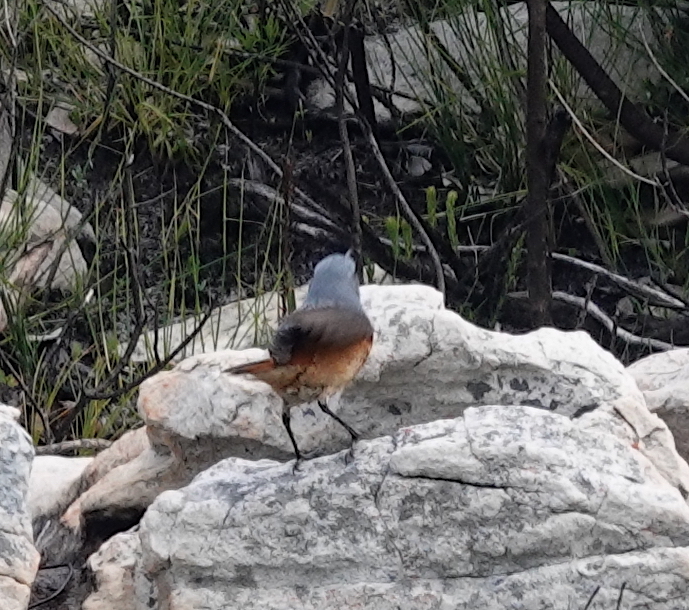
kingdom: Animalia
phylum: Chordata
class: Aves
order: Passeriformes
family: Muscicapidae
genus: Monticola
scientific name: Monticola explorator
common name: Sentinel rock thrush
